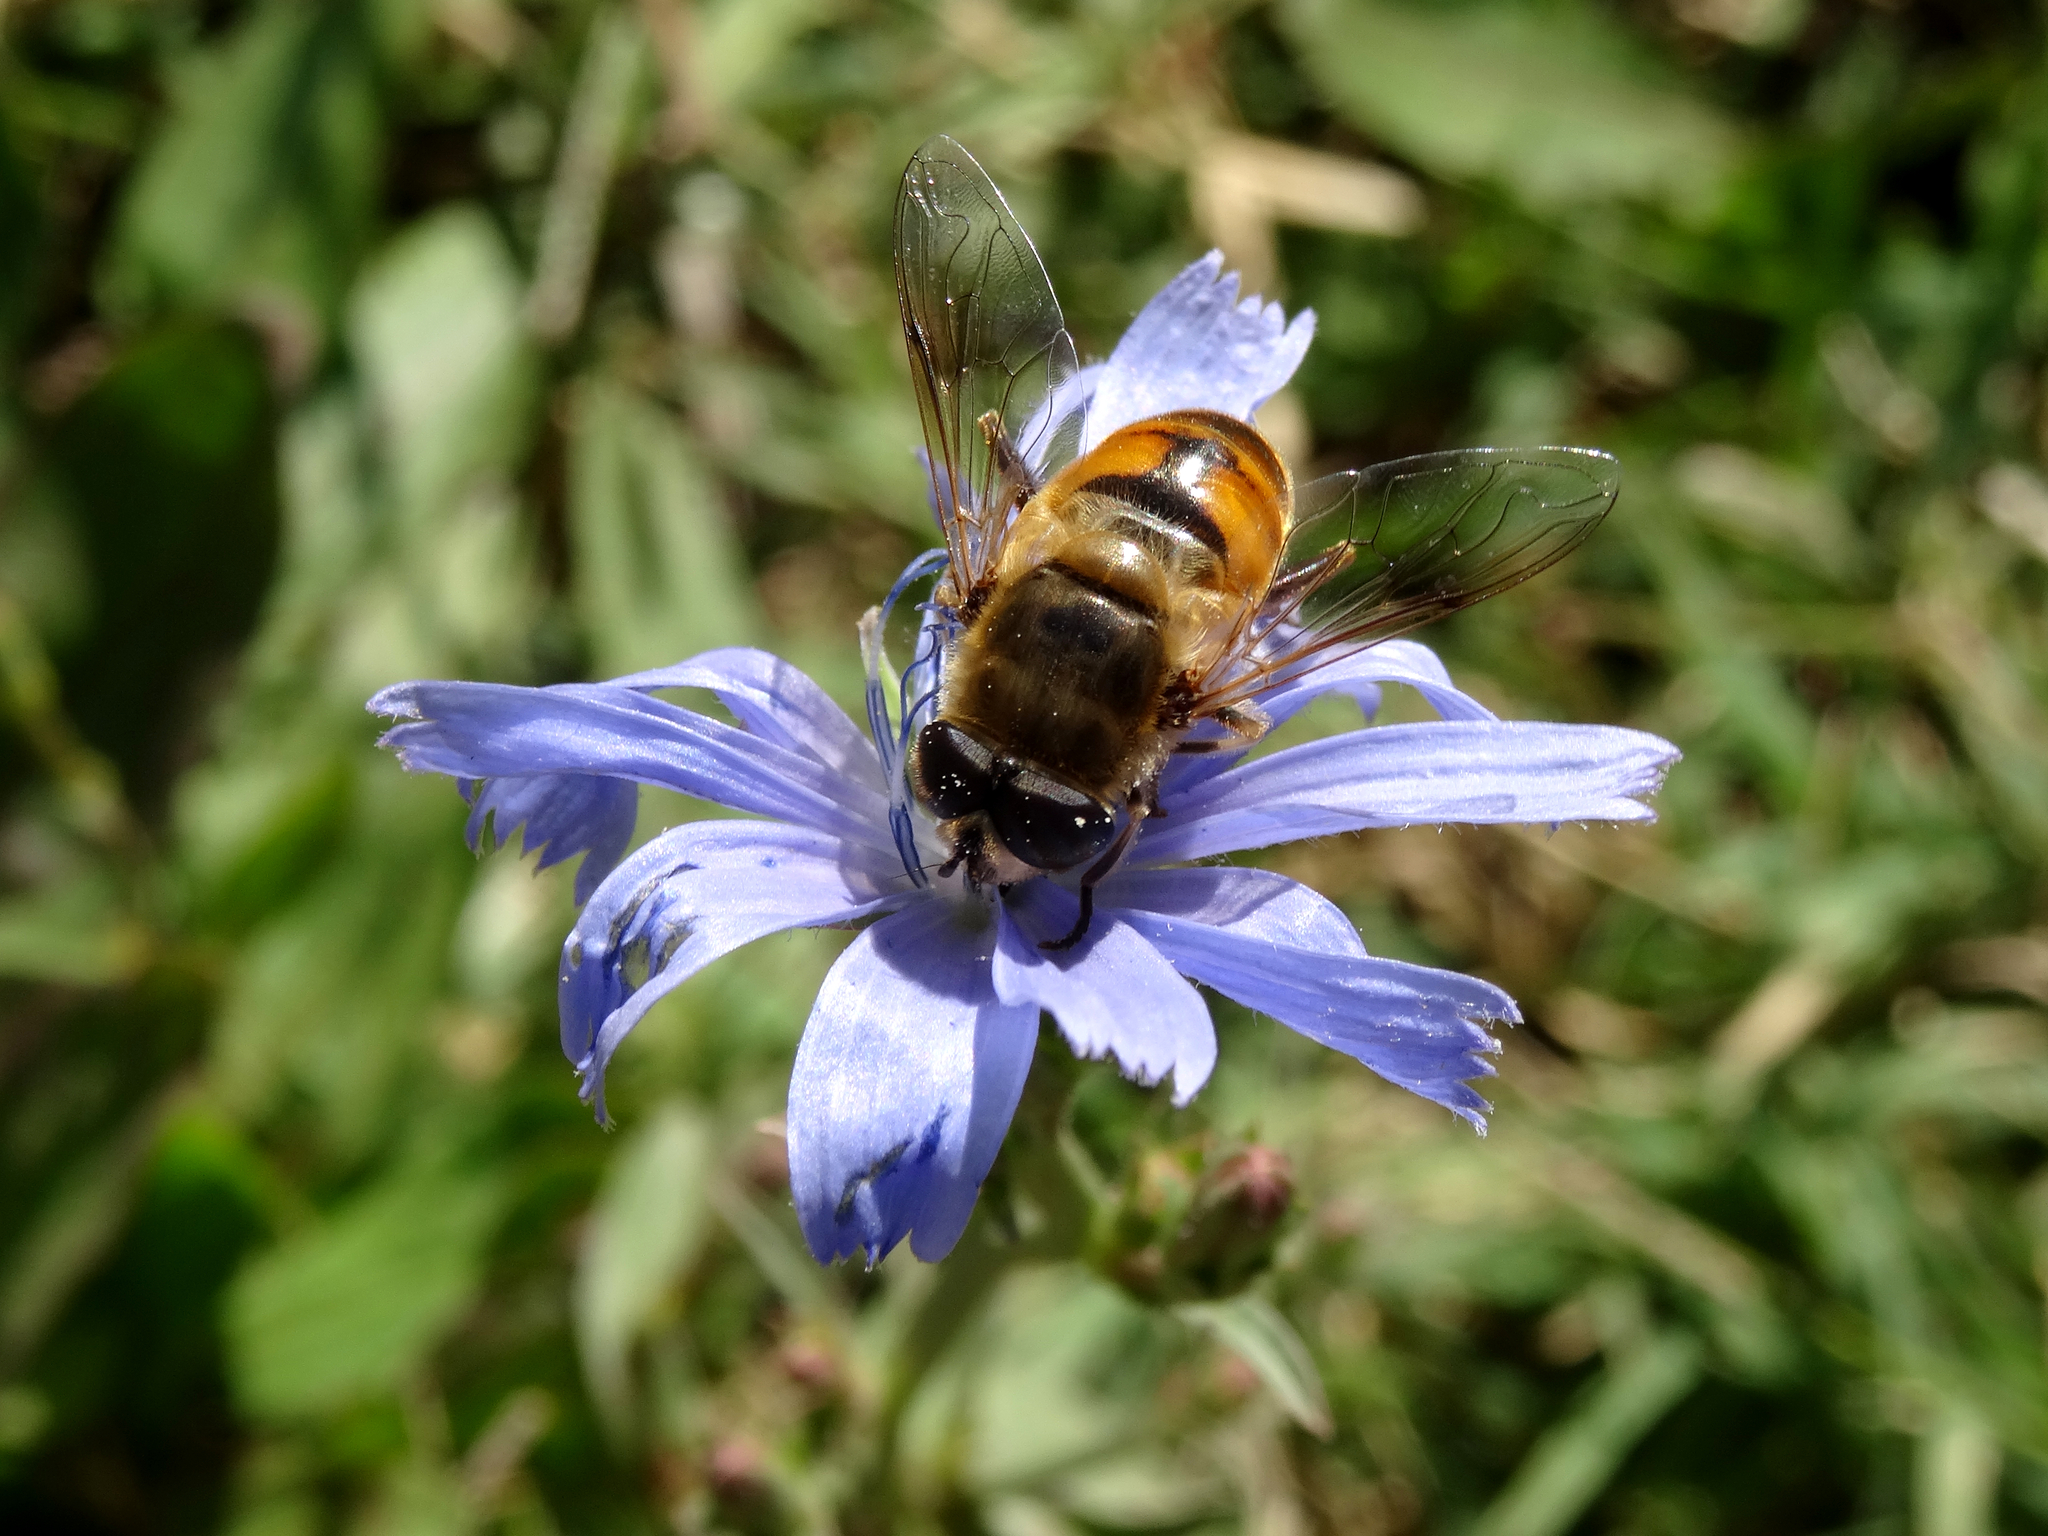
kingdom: Animalia
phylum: Arthropoda
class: Insecta
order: Diptera
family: Syrphidae
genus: Eristalis
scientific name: Eristalis tenax
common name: Drone fly
